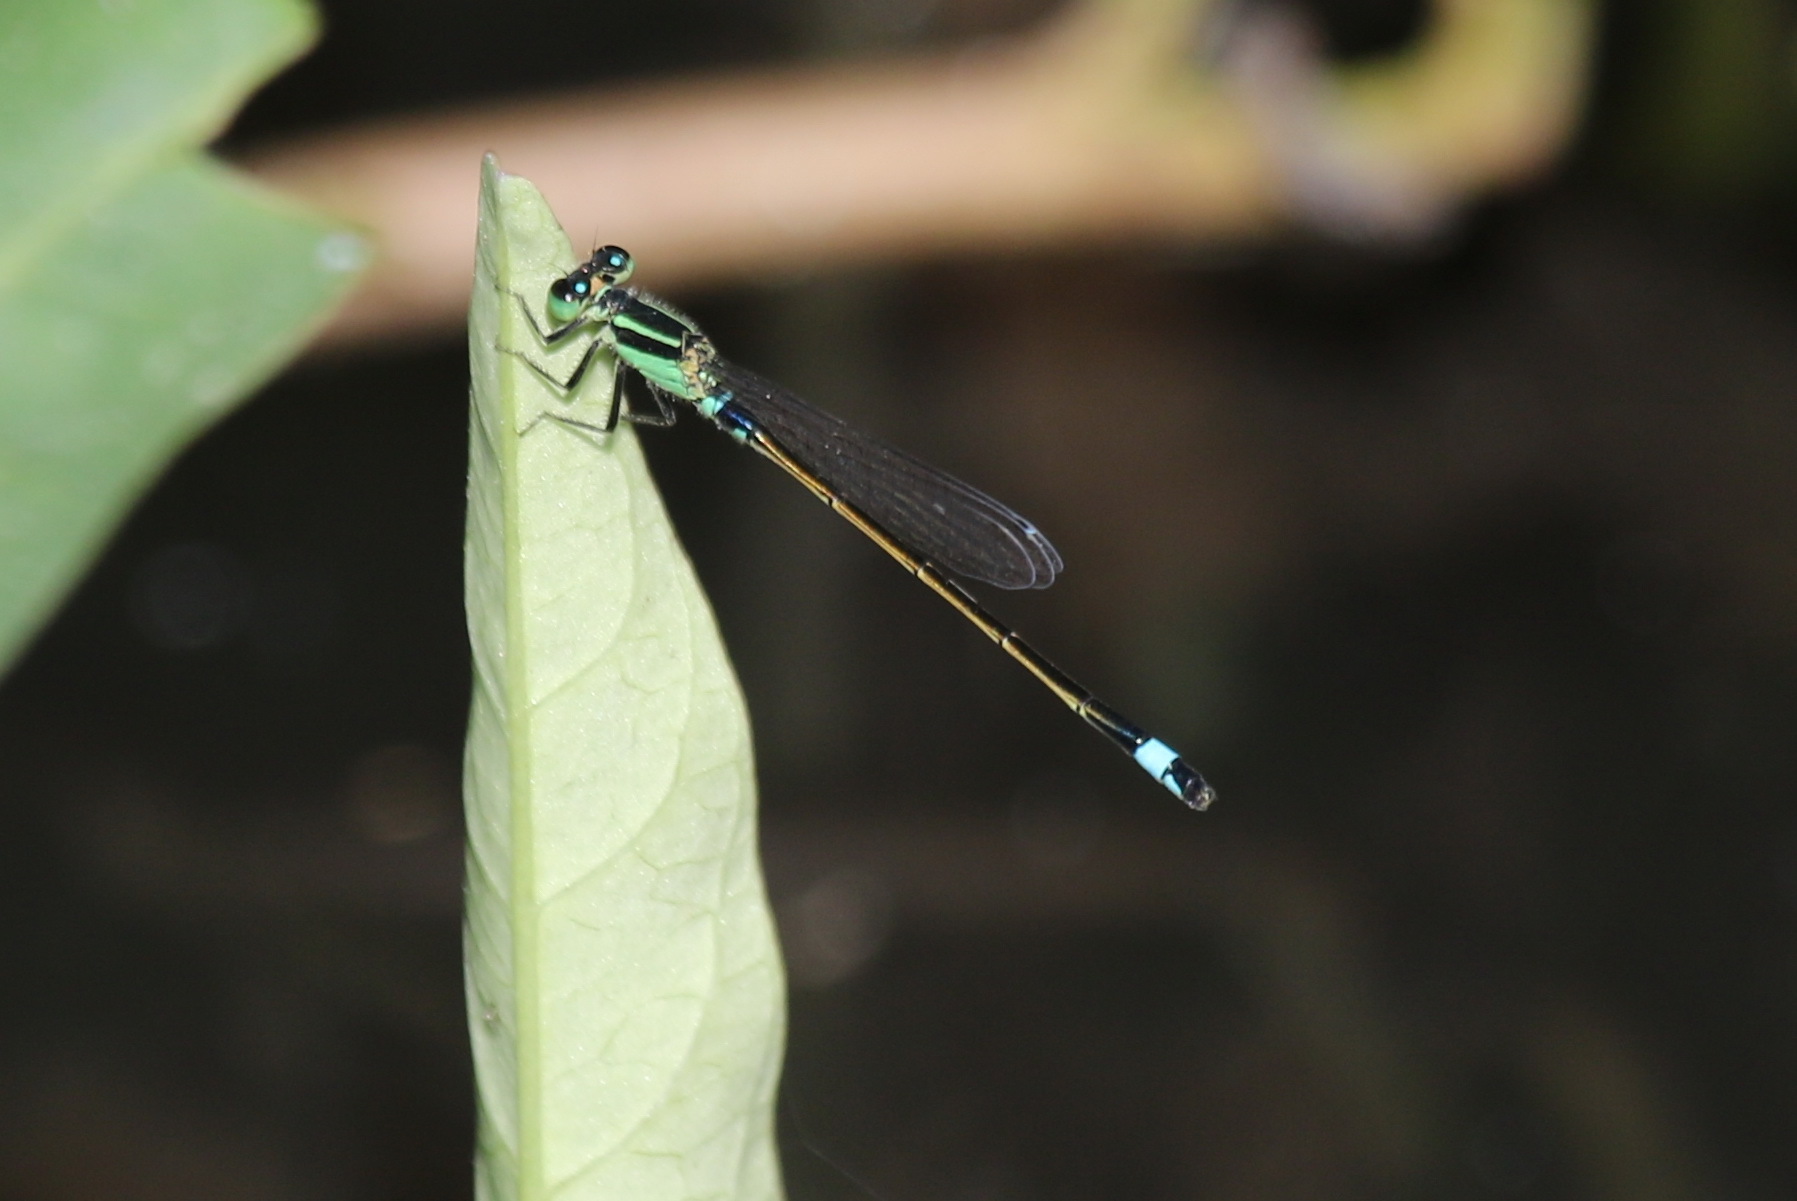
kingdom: Animalia
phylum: Arthropoda
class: Insecta
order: Odonata
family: Coenagrionidae
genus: Ischnura
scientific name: Ischnura senegalensis
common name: Tropical bluetail
